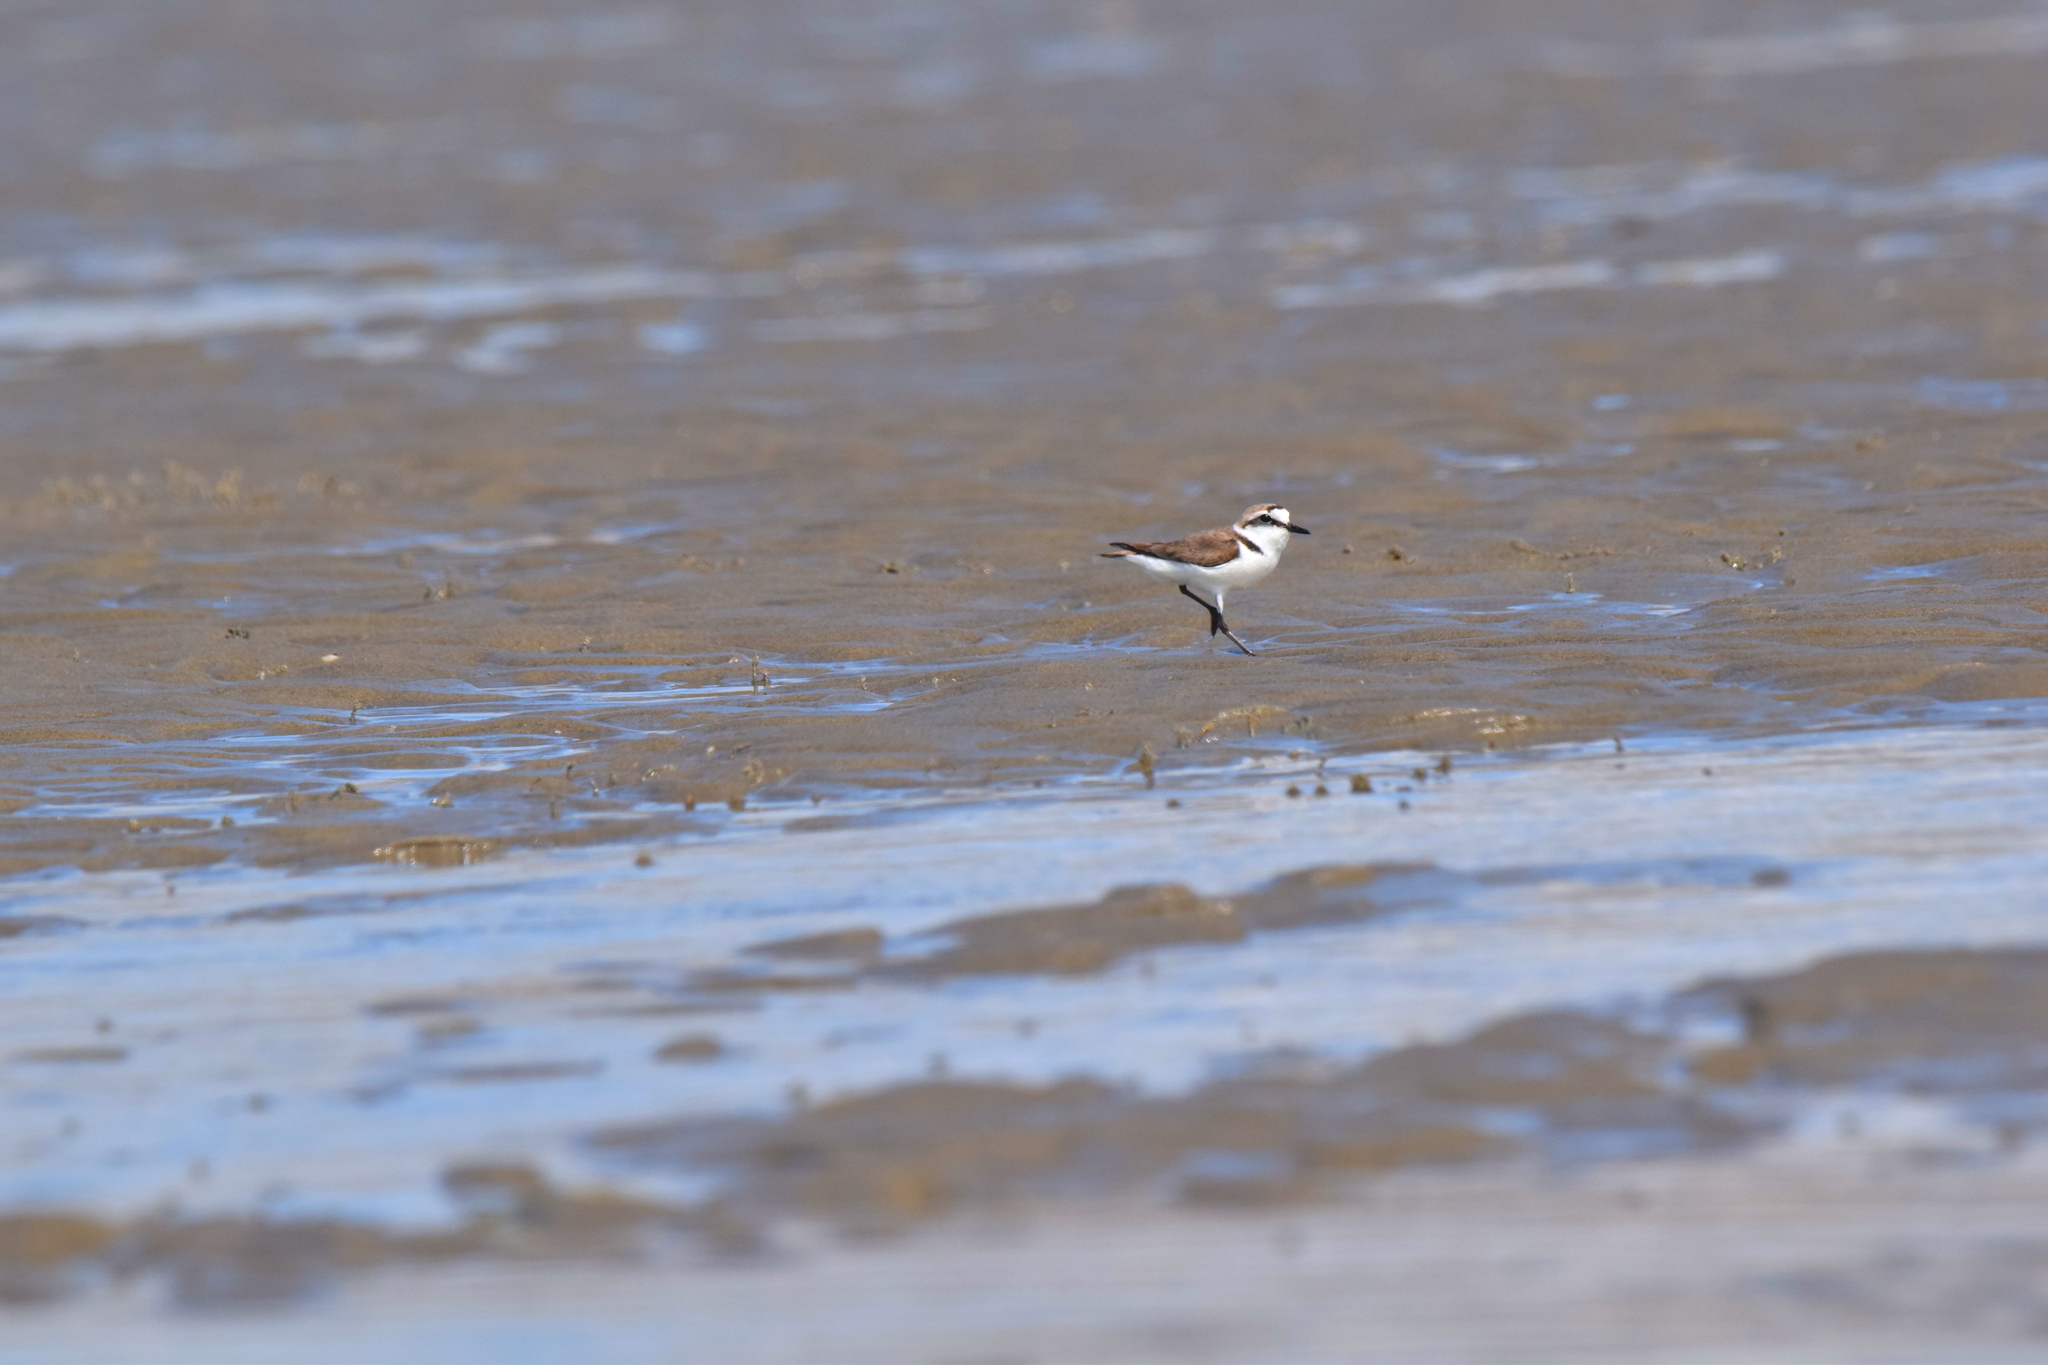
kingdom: Animalia
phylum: Chordata
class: Aves
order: Charadriiformes
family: Charadriidae
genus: Charadrius
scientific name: Charadrius alexandrinus
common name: Kentish plover
